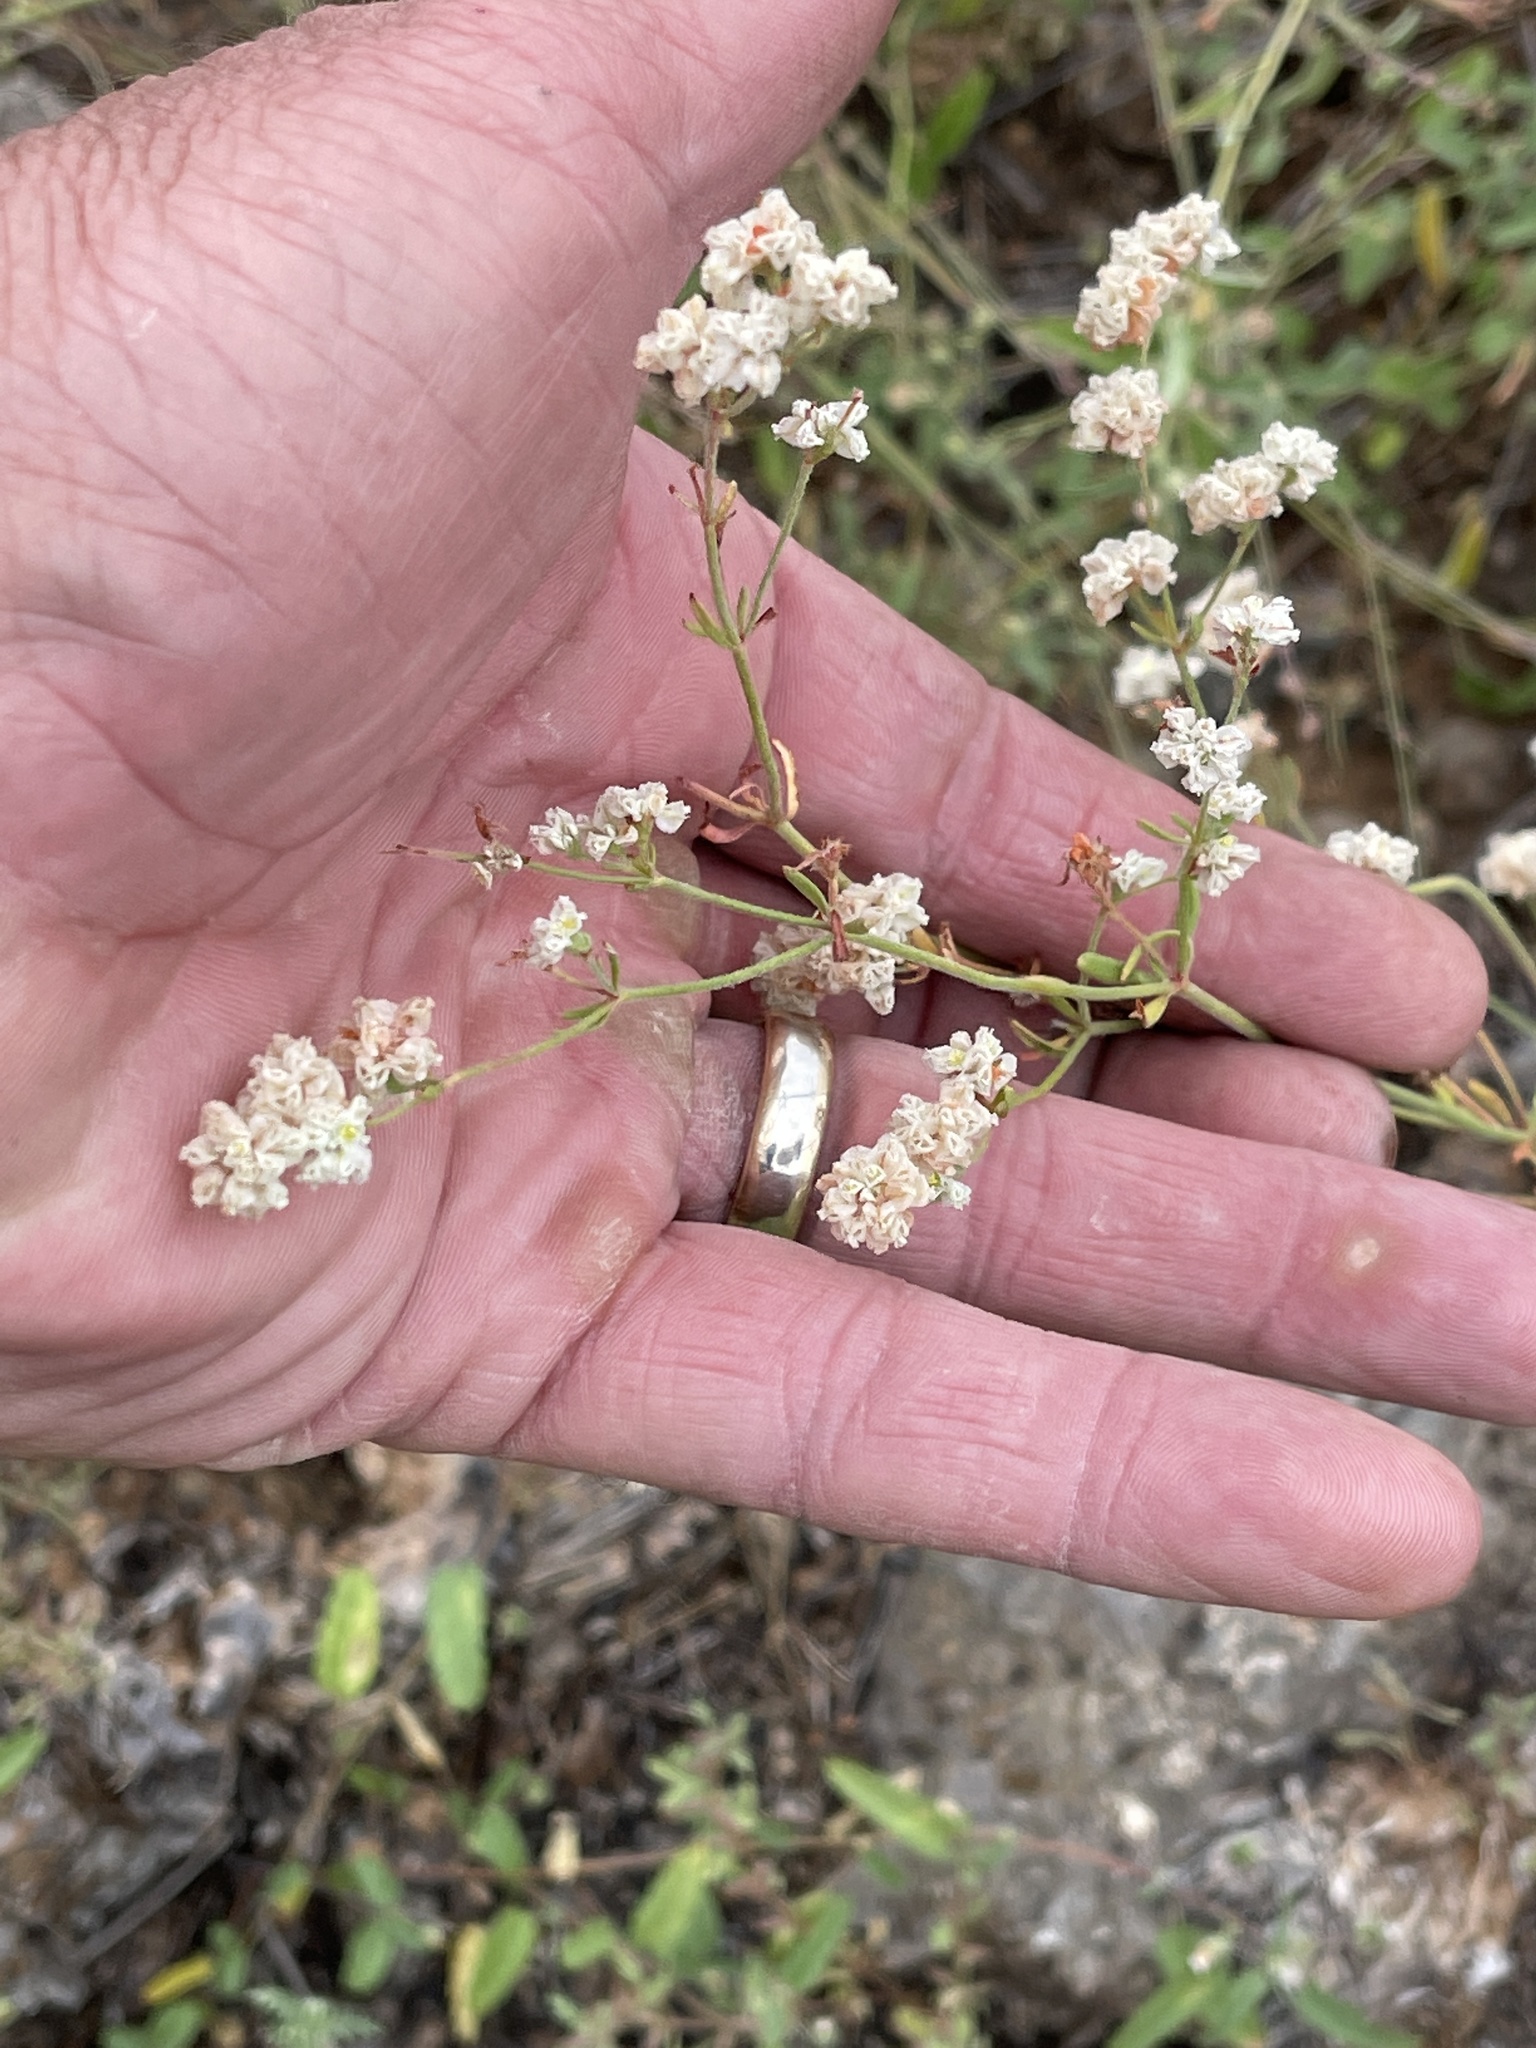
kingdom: Plantae
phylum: Tracheophyta
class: Magnoliopsida
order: Caryophyllales
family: Polygonaceae
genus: Eriogonum
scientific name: Eriogonum abertianum
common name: Abert's wild buckwheat
